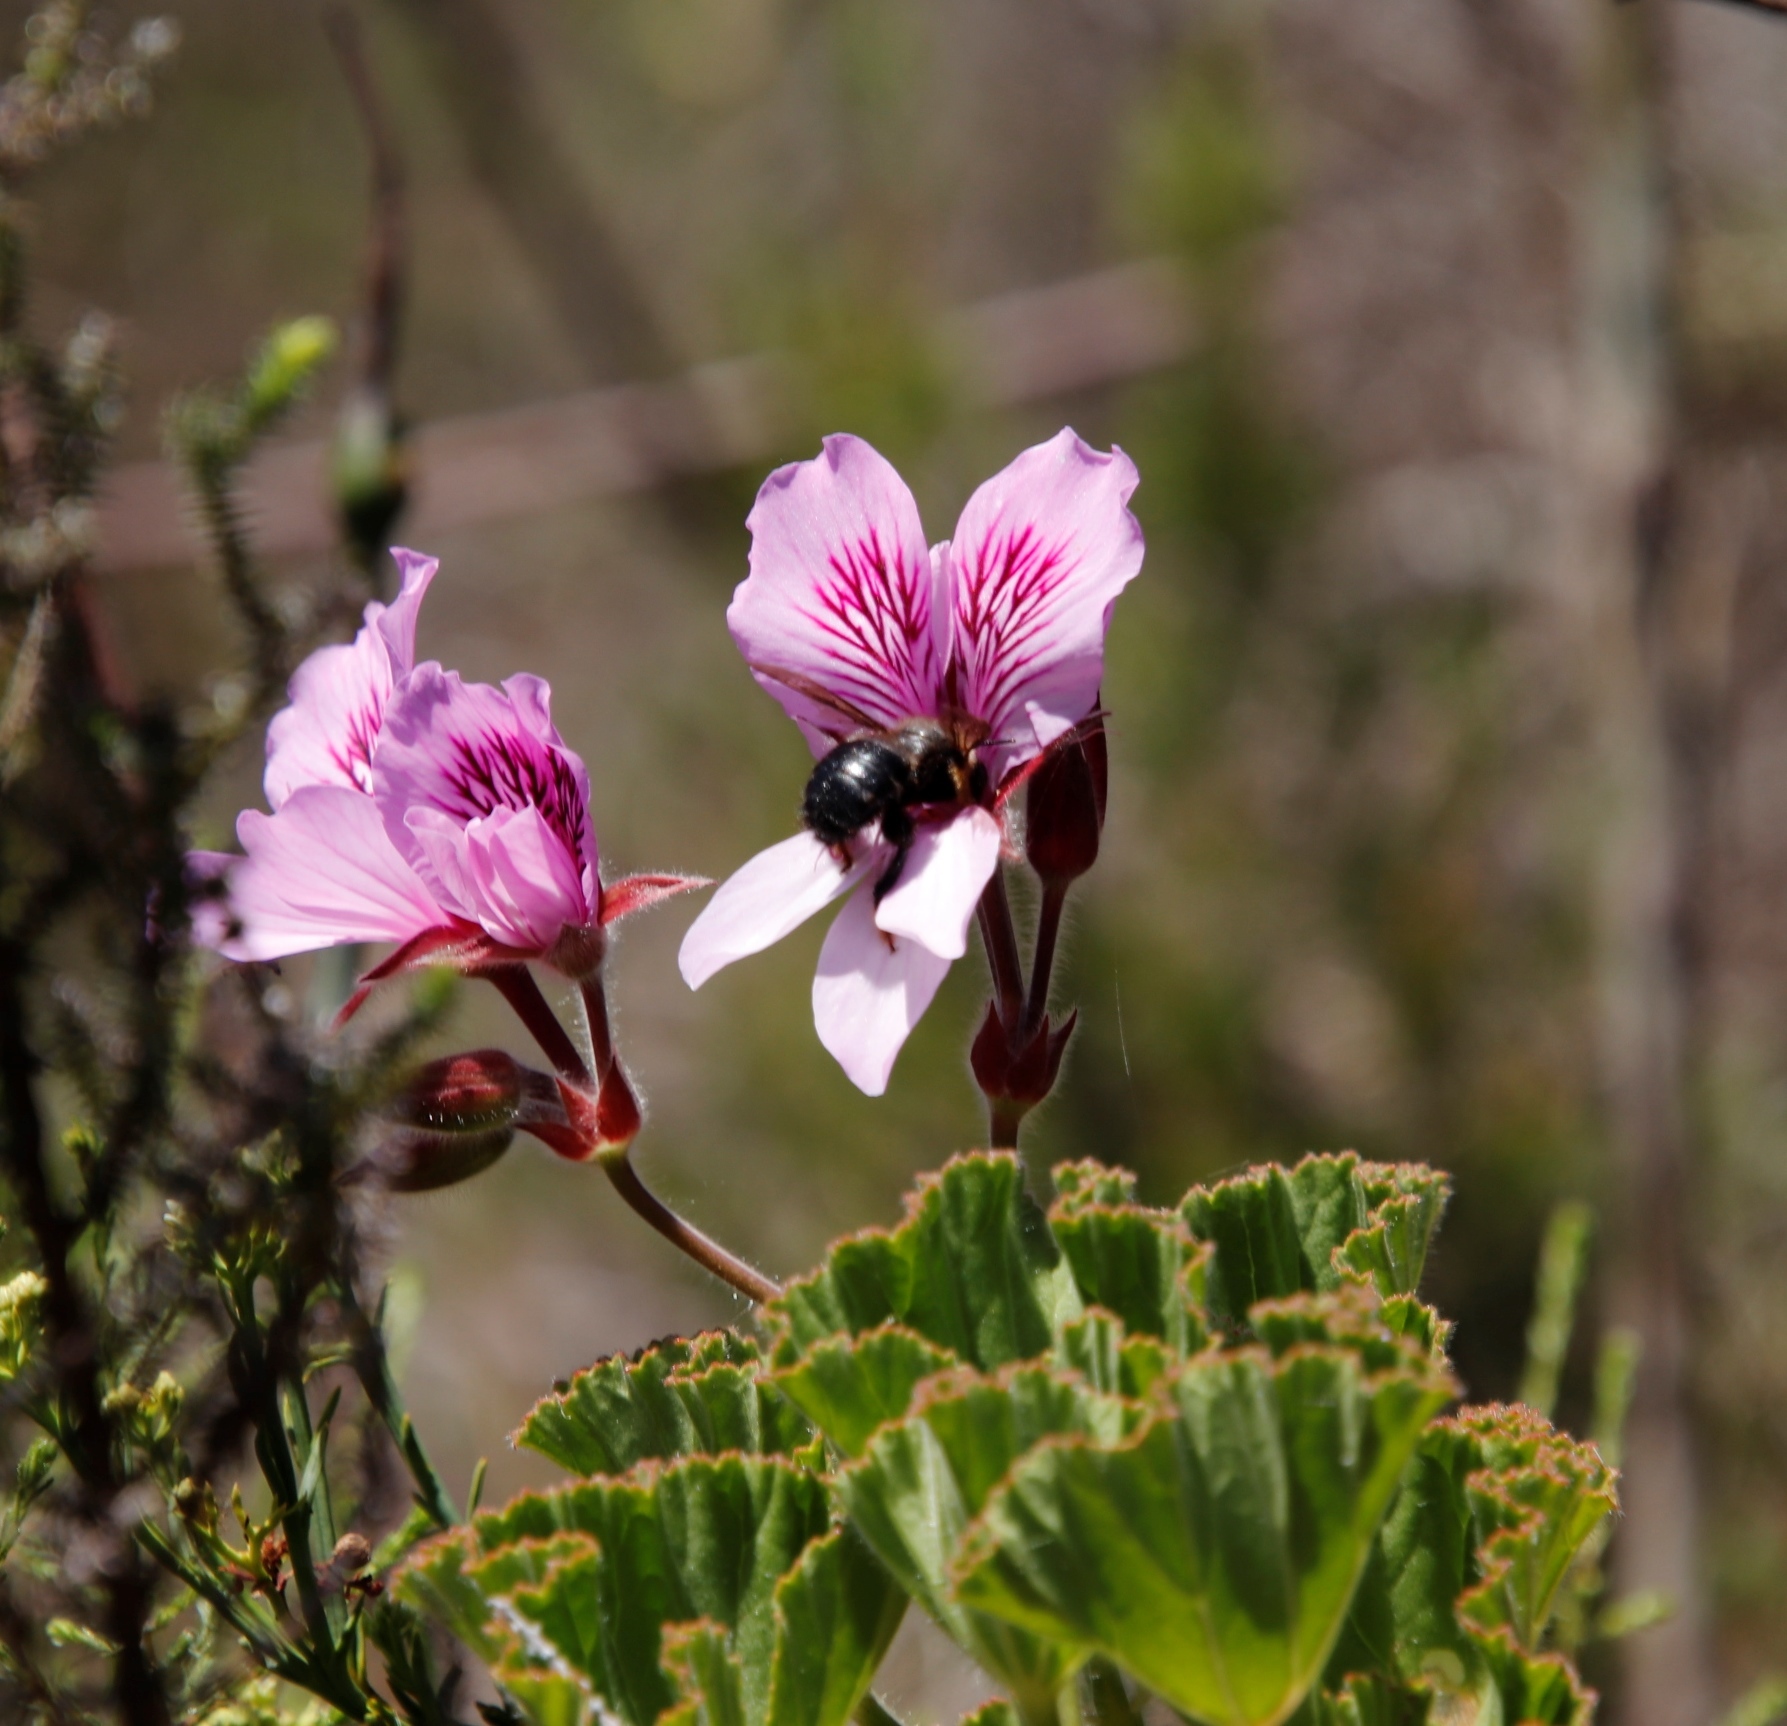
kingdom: Plantae
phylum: Tracheophyta
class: Magnoliopsida
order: Geraniales
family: Geraniaceae
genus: Pelargonium
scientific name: Pelargonium cucullatum
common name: Tree pelargonium
